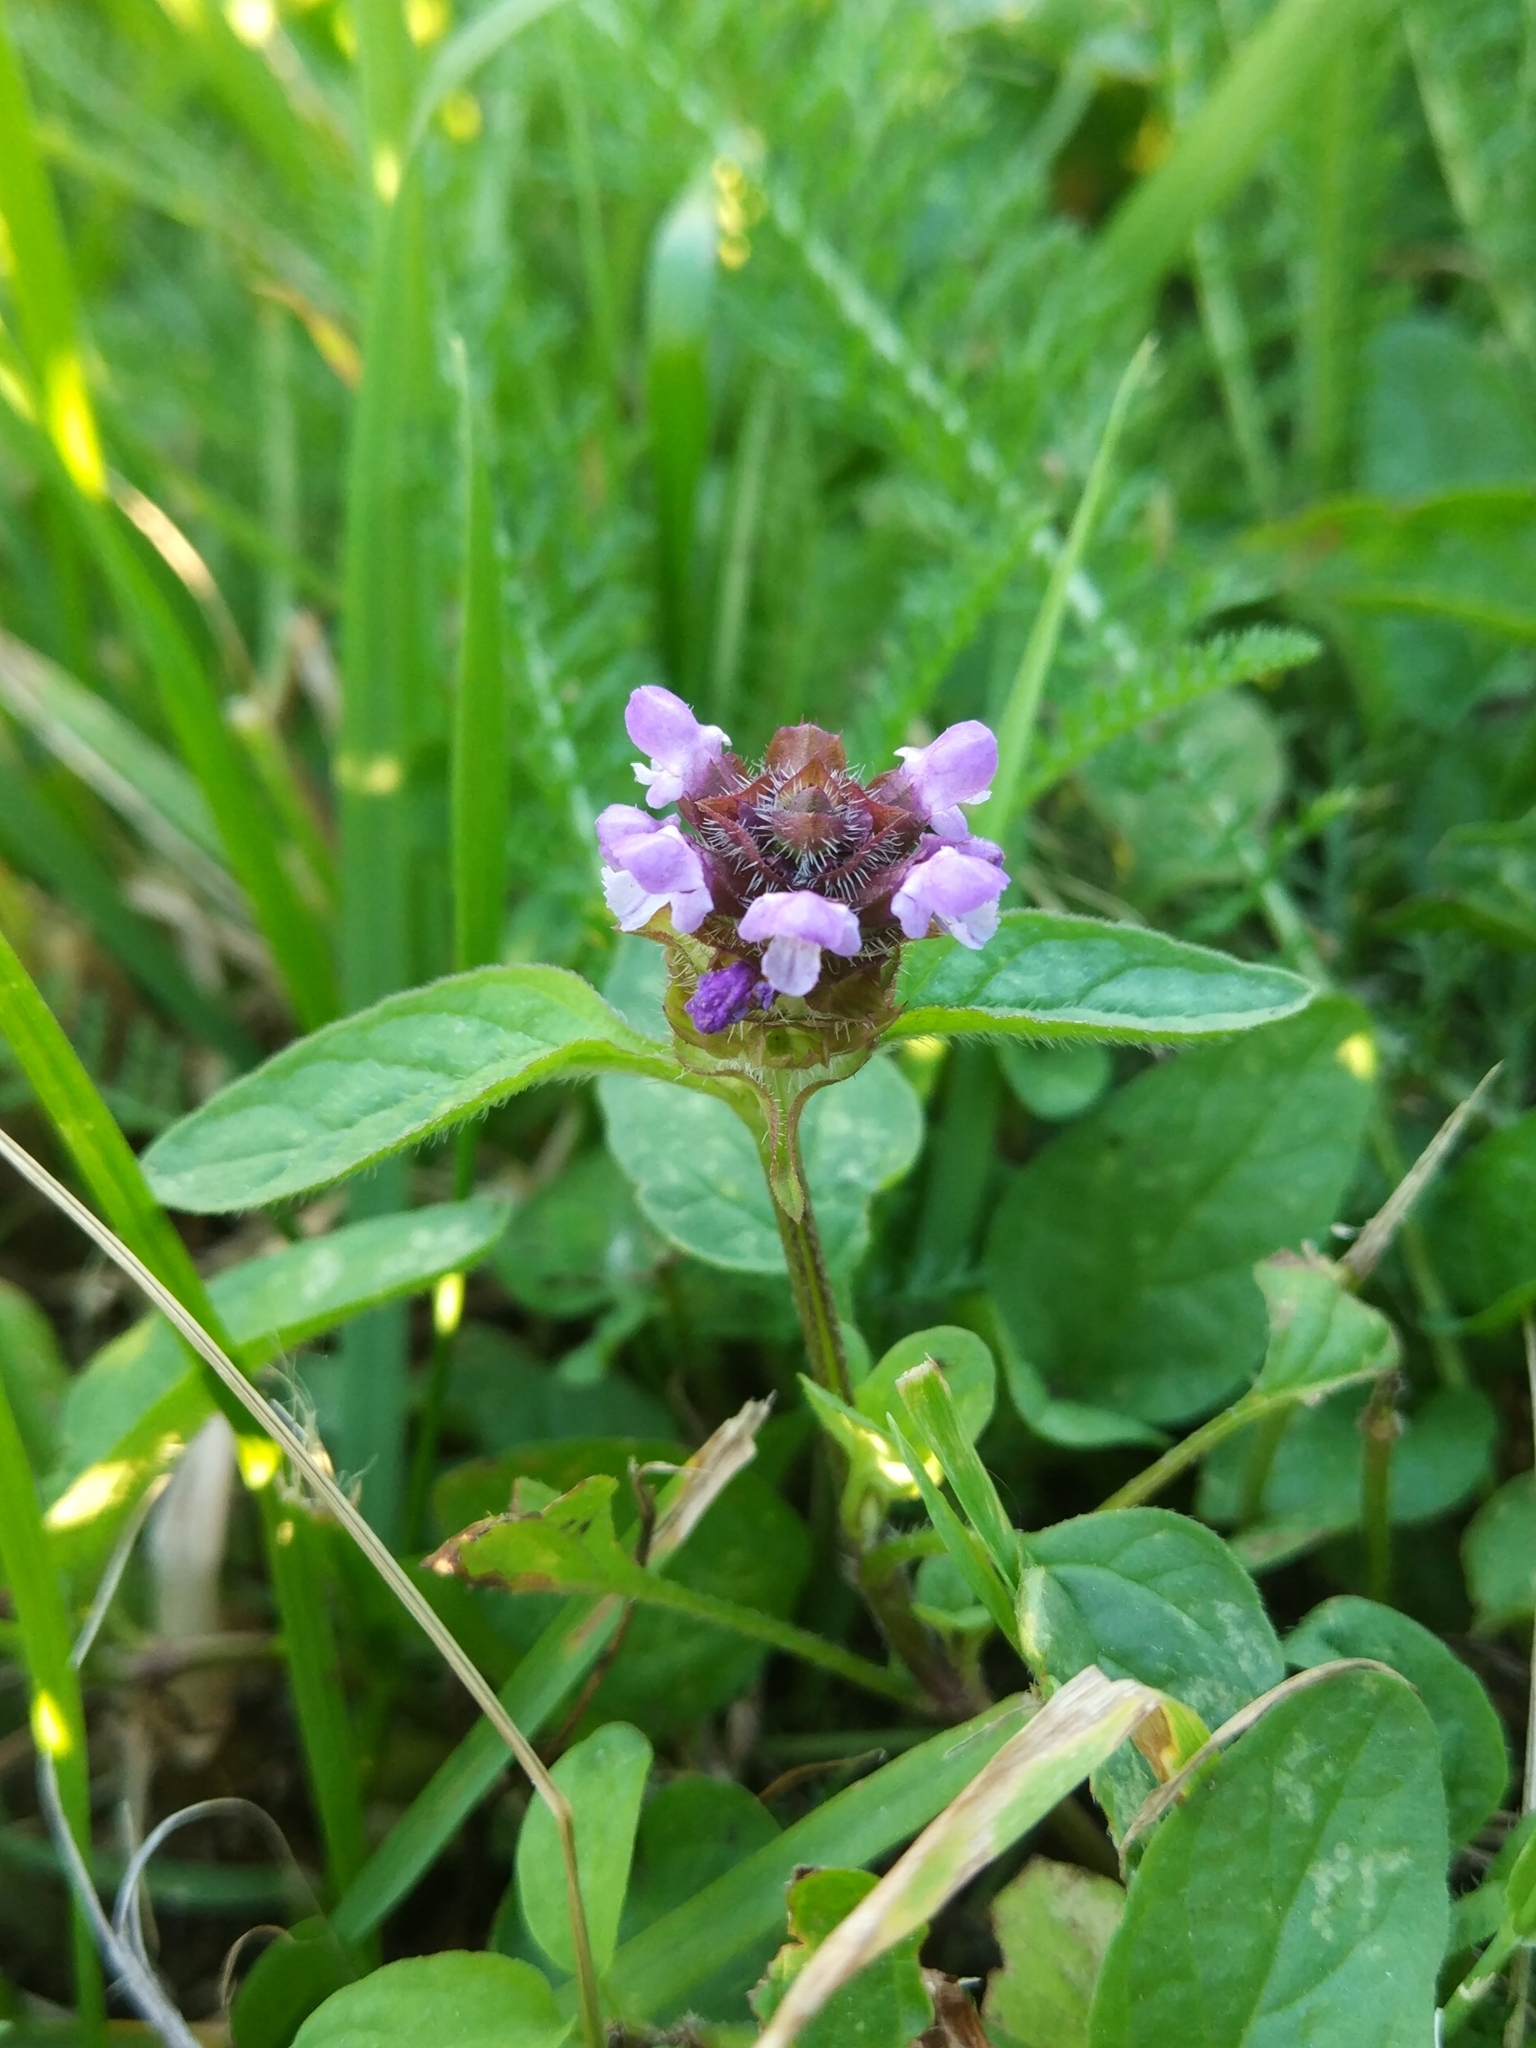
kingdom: Plantae
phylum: Tracheophyta
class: Magnoliopsida
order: Lamiales
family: Lamiaceae
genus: Prunella
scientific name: Prunella vulgaris
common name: Heal-all
